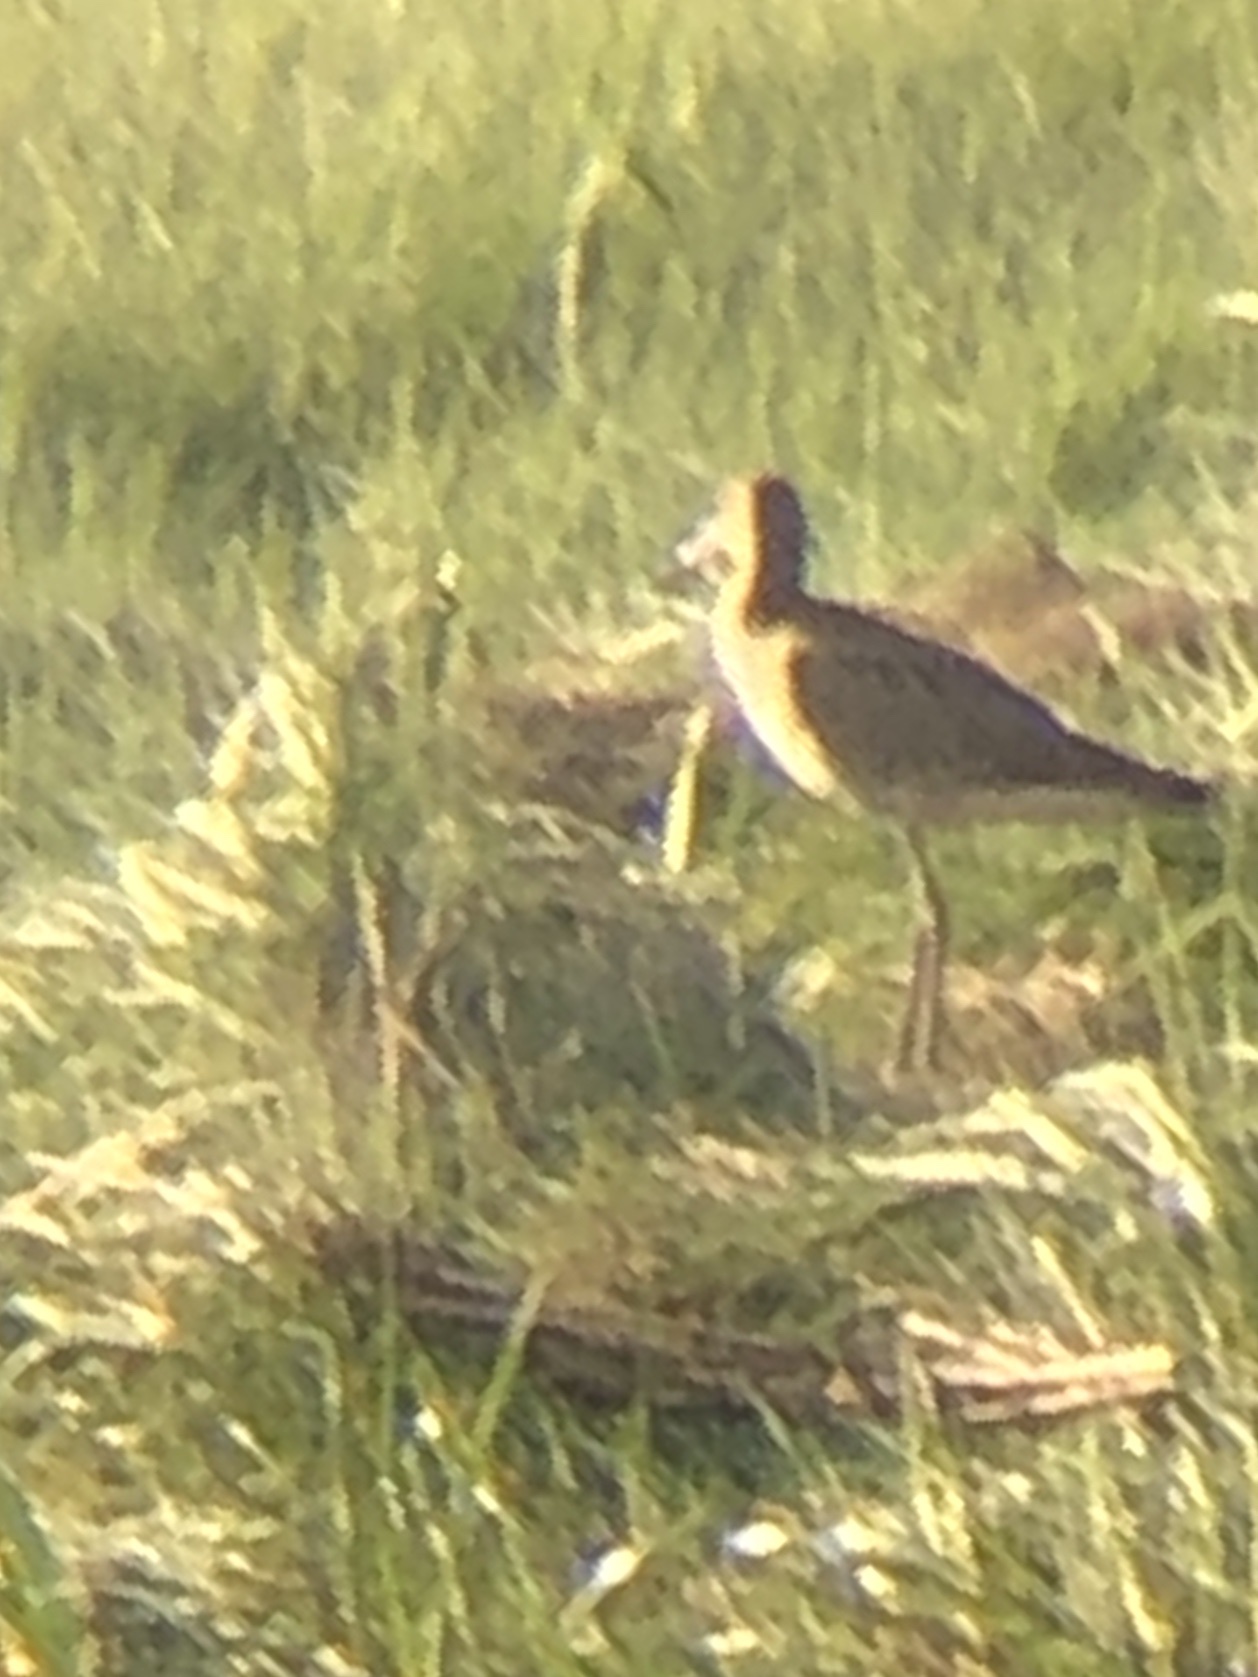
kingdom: Animalia
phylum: Chordata
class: Aves
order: Charadriiformes
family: Scolopacidae
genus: Tringa
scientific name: Tringa semipalmata
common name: Willet
